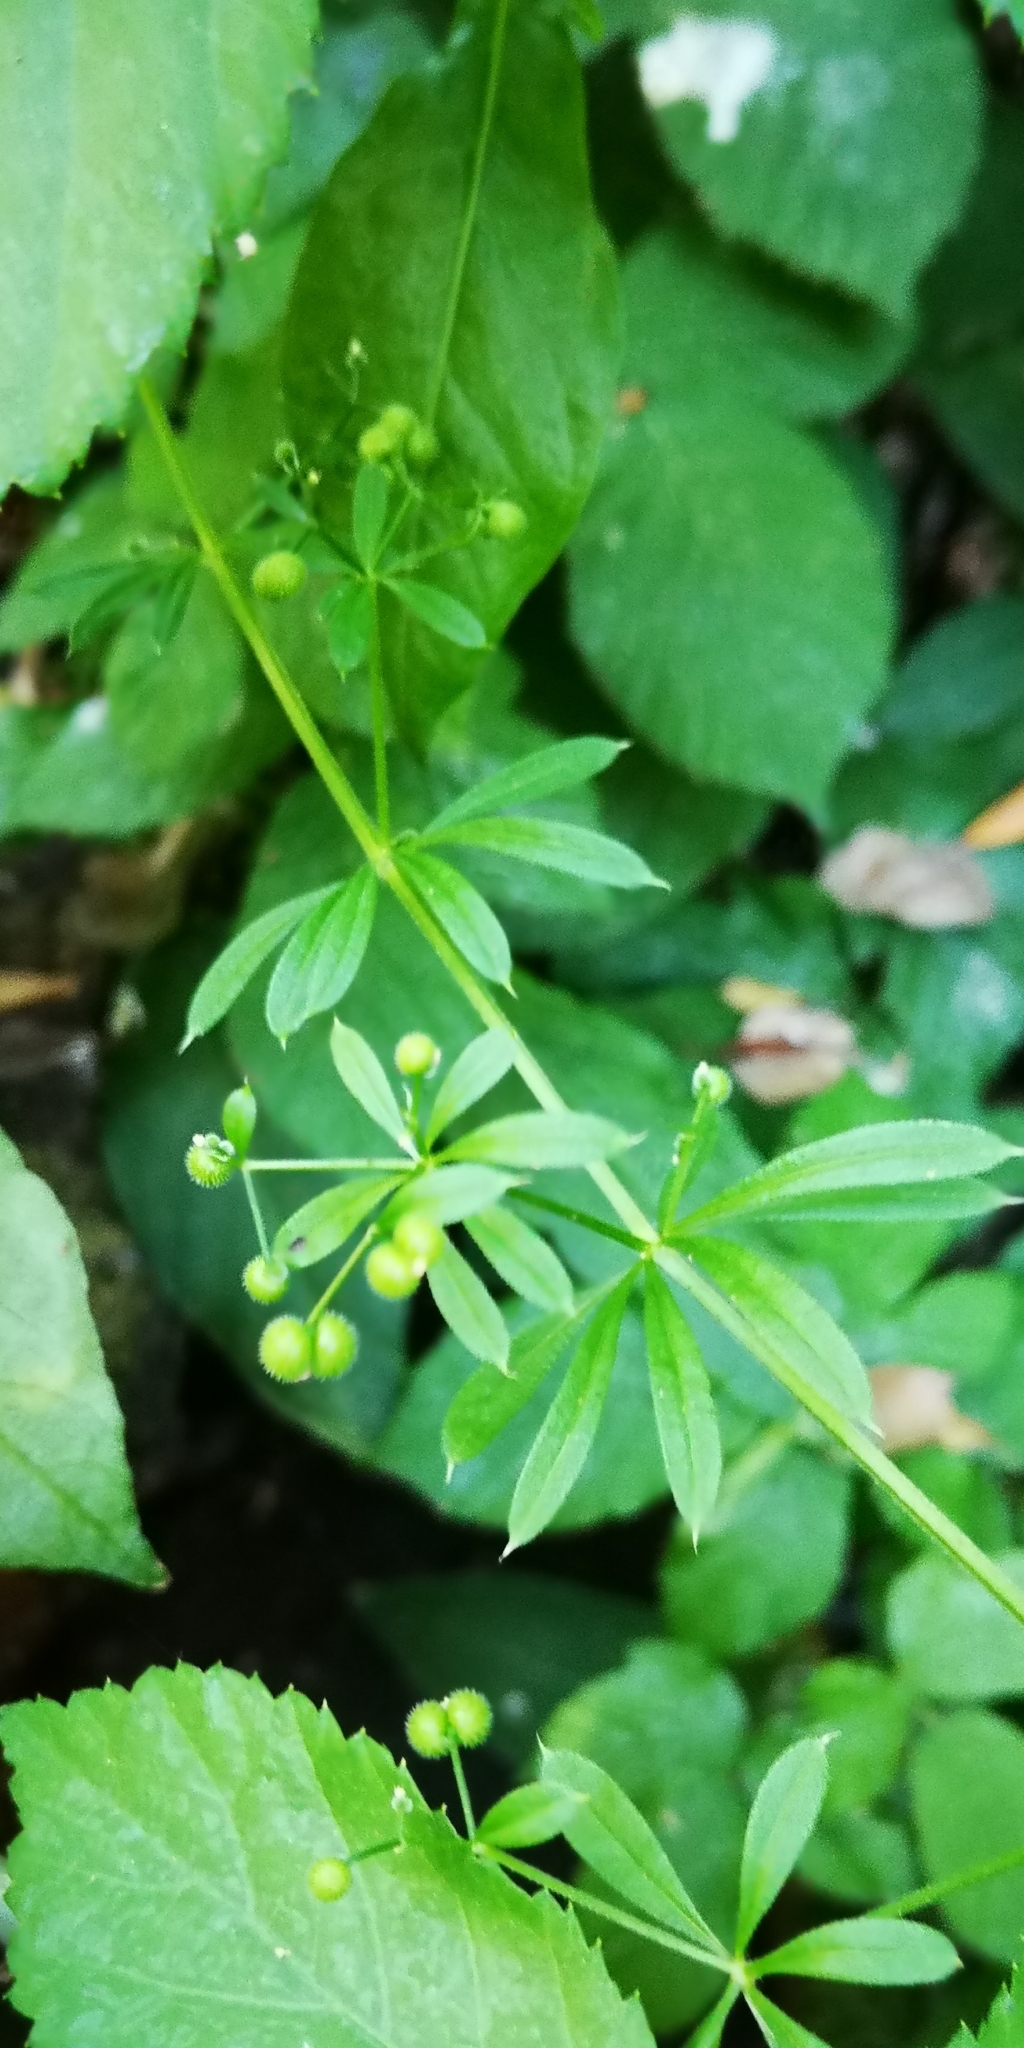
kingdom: Plantae
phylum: Tracheophyta
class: Magnoliopsida
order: Gentianales
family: Rubiaceae
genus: Galium
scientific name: Galium aparine
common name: Cleavers
